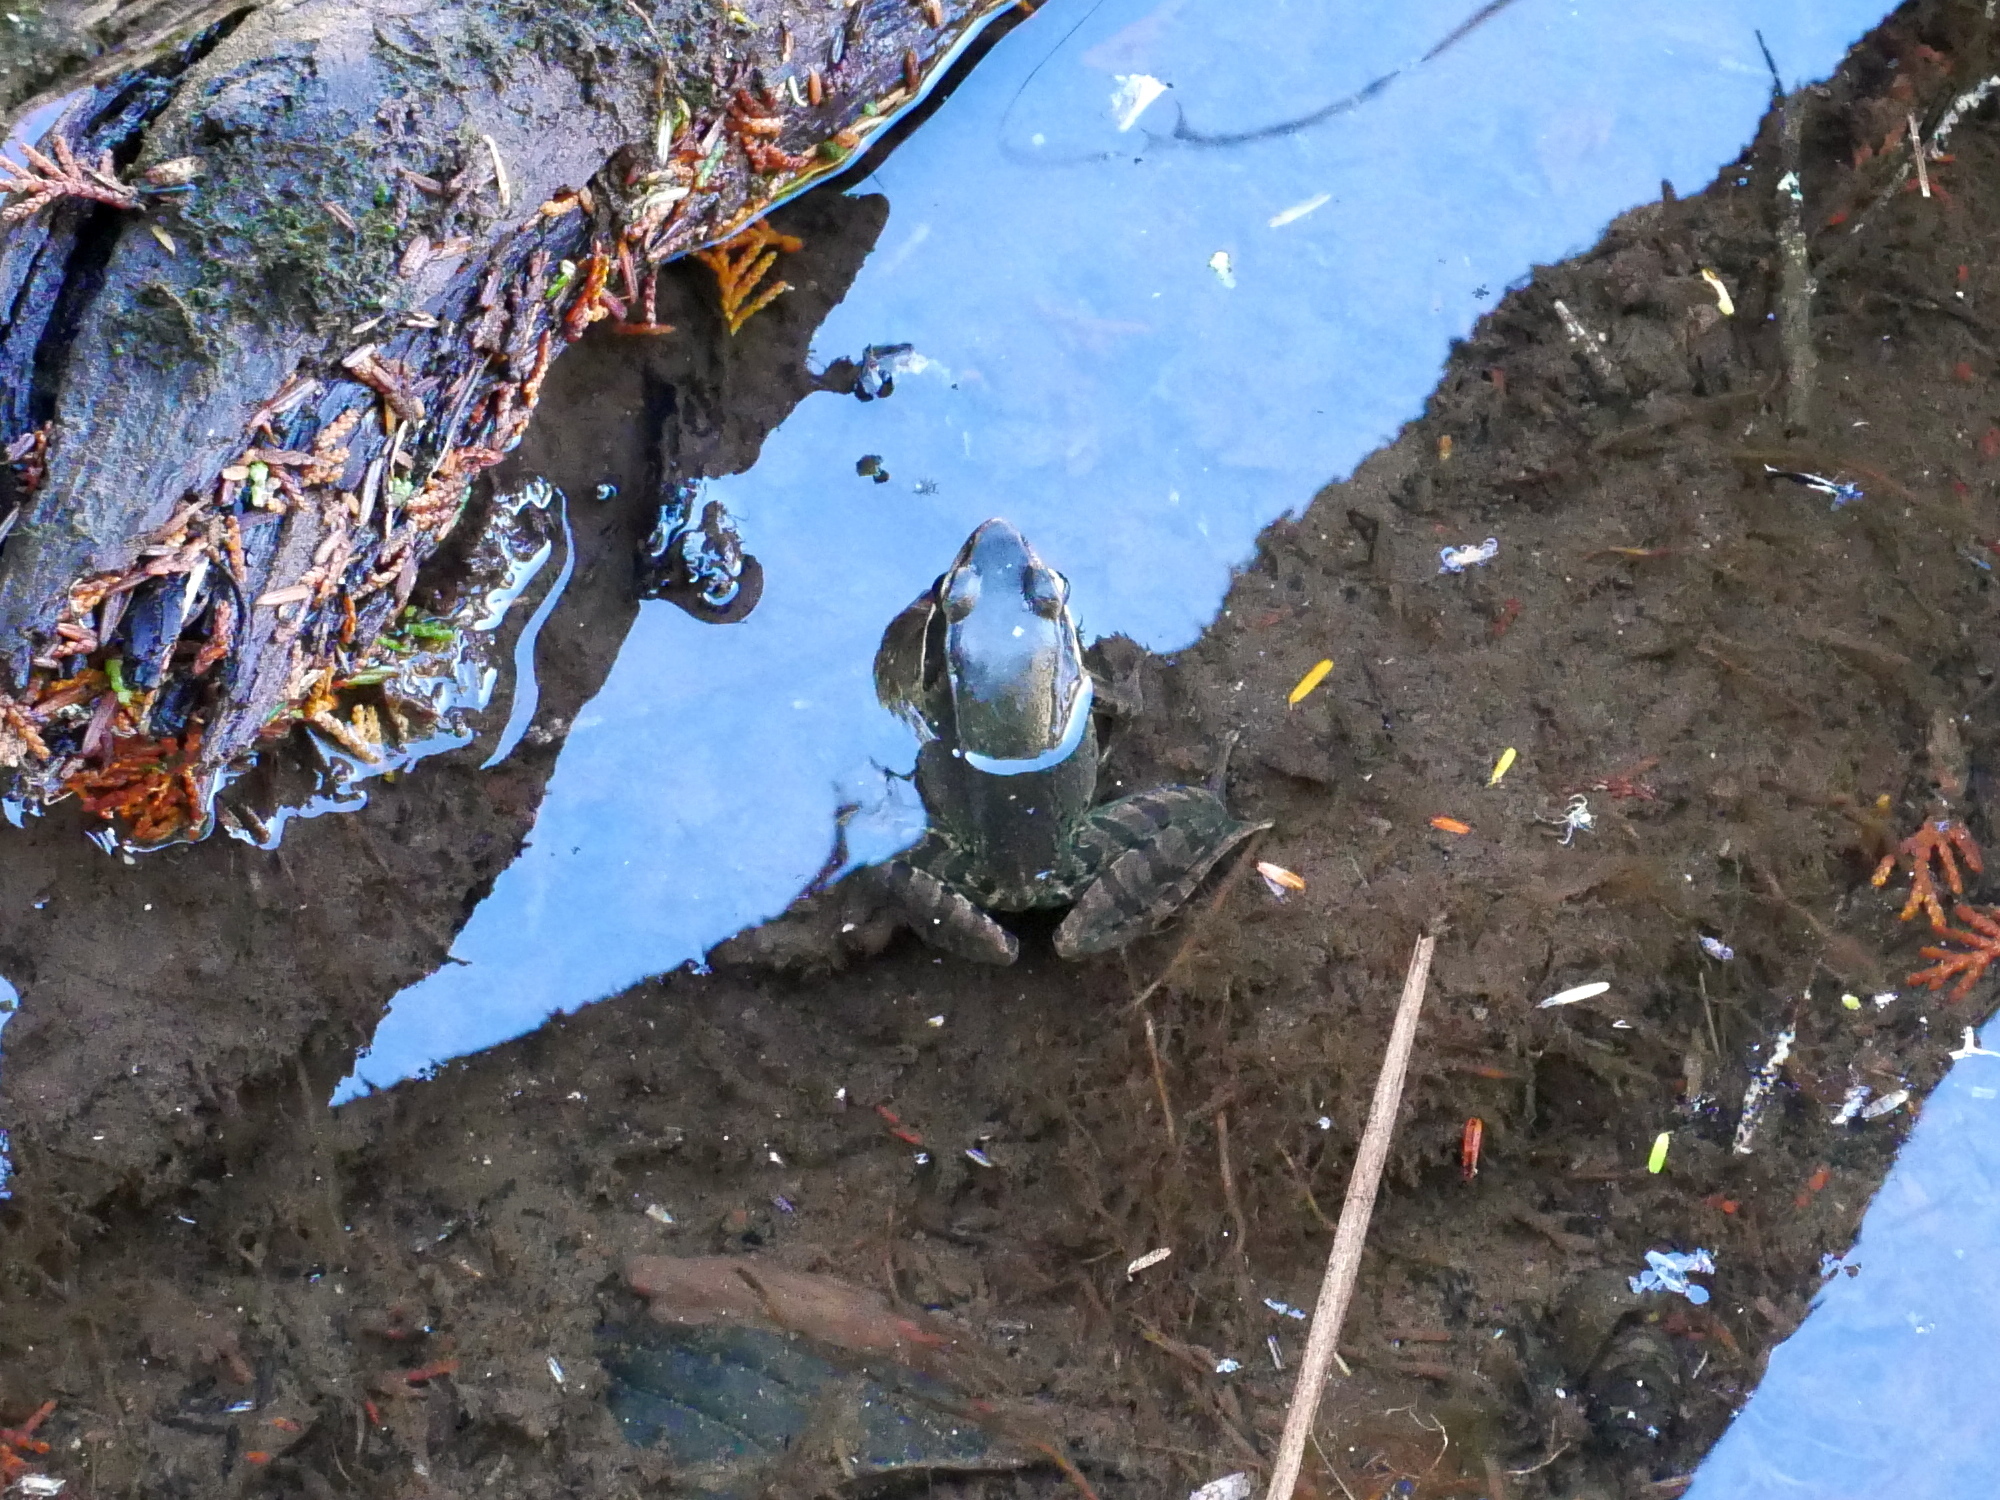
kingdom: Animalia
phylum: Chordata
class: Amphibia
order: Anura
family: Ranidae
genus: Nidirana
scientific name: Nidirana adenopleura
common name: Olive frog
